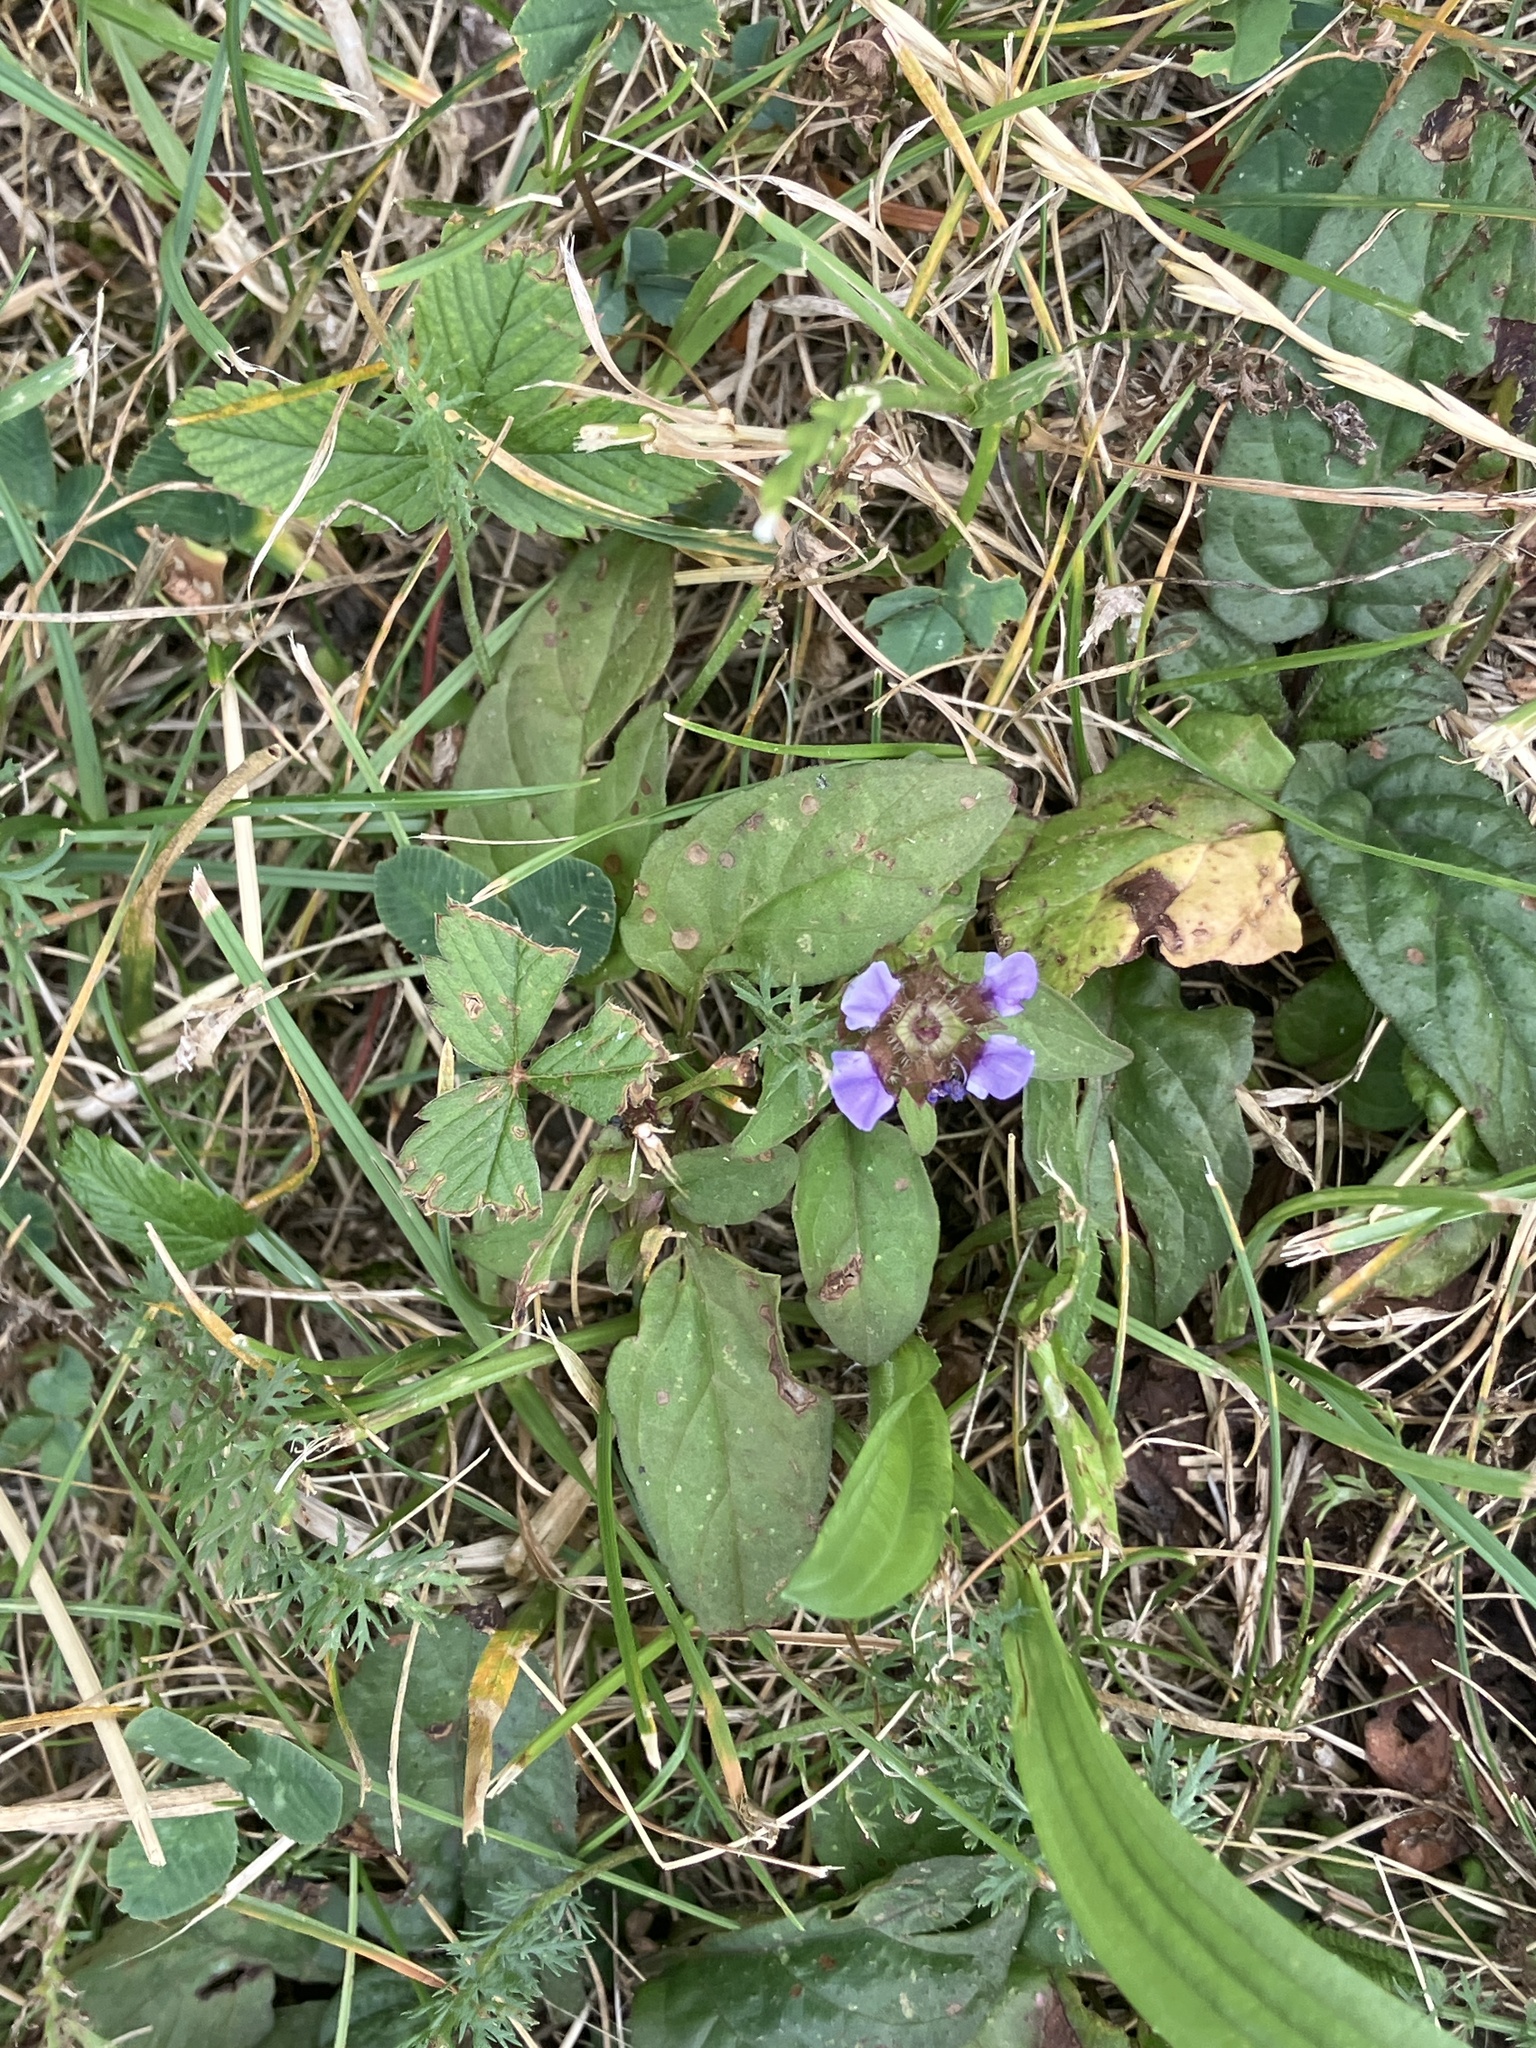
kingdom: Plantae
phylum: Tracheophyta
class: Magnoliopsida
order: Lamiales
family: Lamiaceae
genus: Prunella
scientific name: Prunella vulgaris
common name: Heal-all
